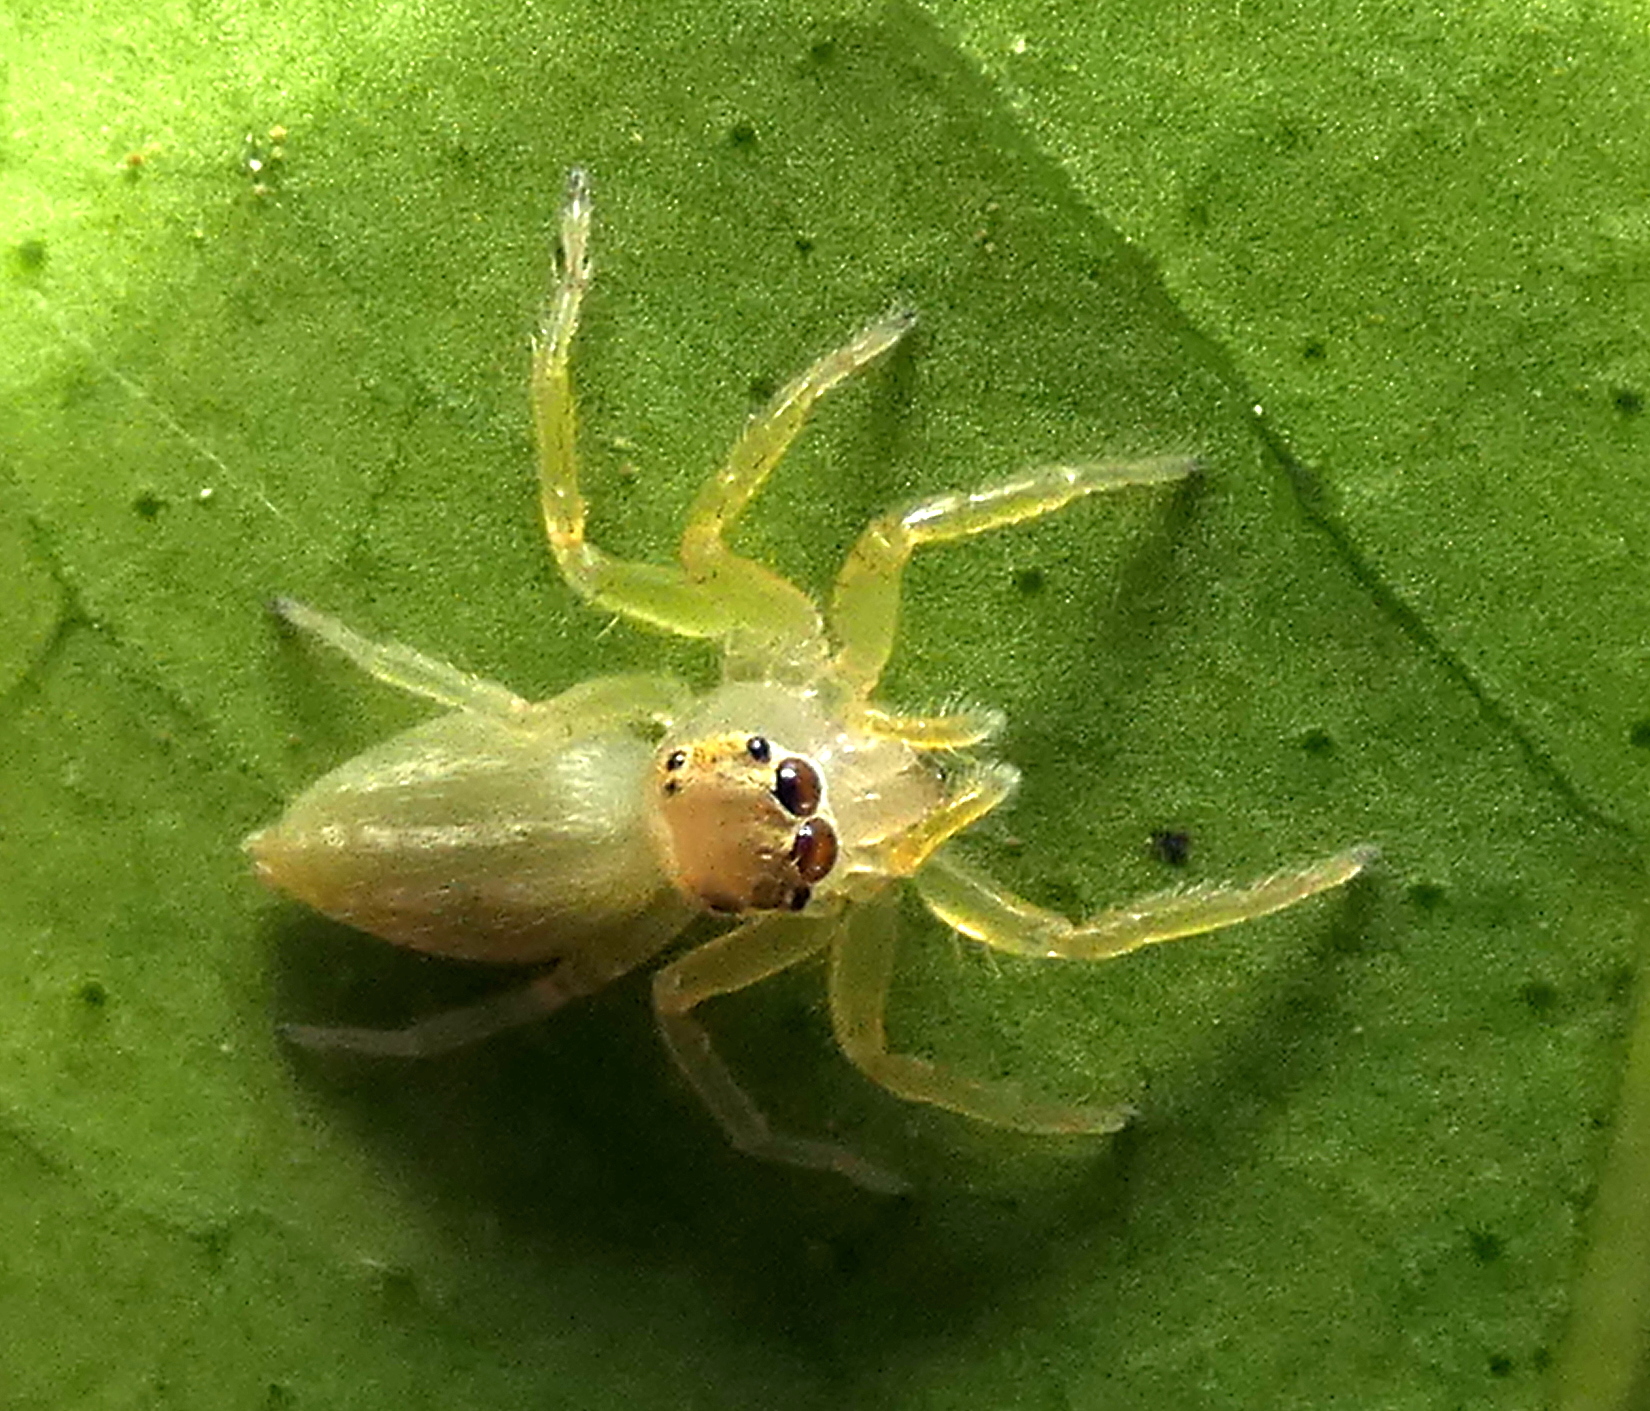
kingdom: Animalia
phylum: Arthropoda
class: Arachnida
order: Araneae
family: Salticidae
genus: Chira
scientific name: Chira spinosa
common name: Jumping spiders
